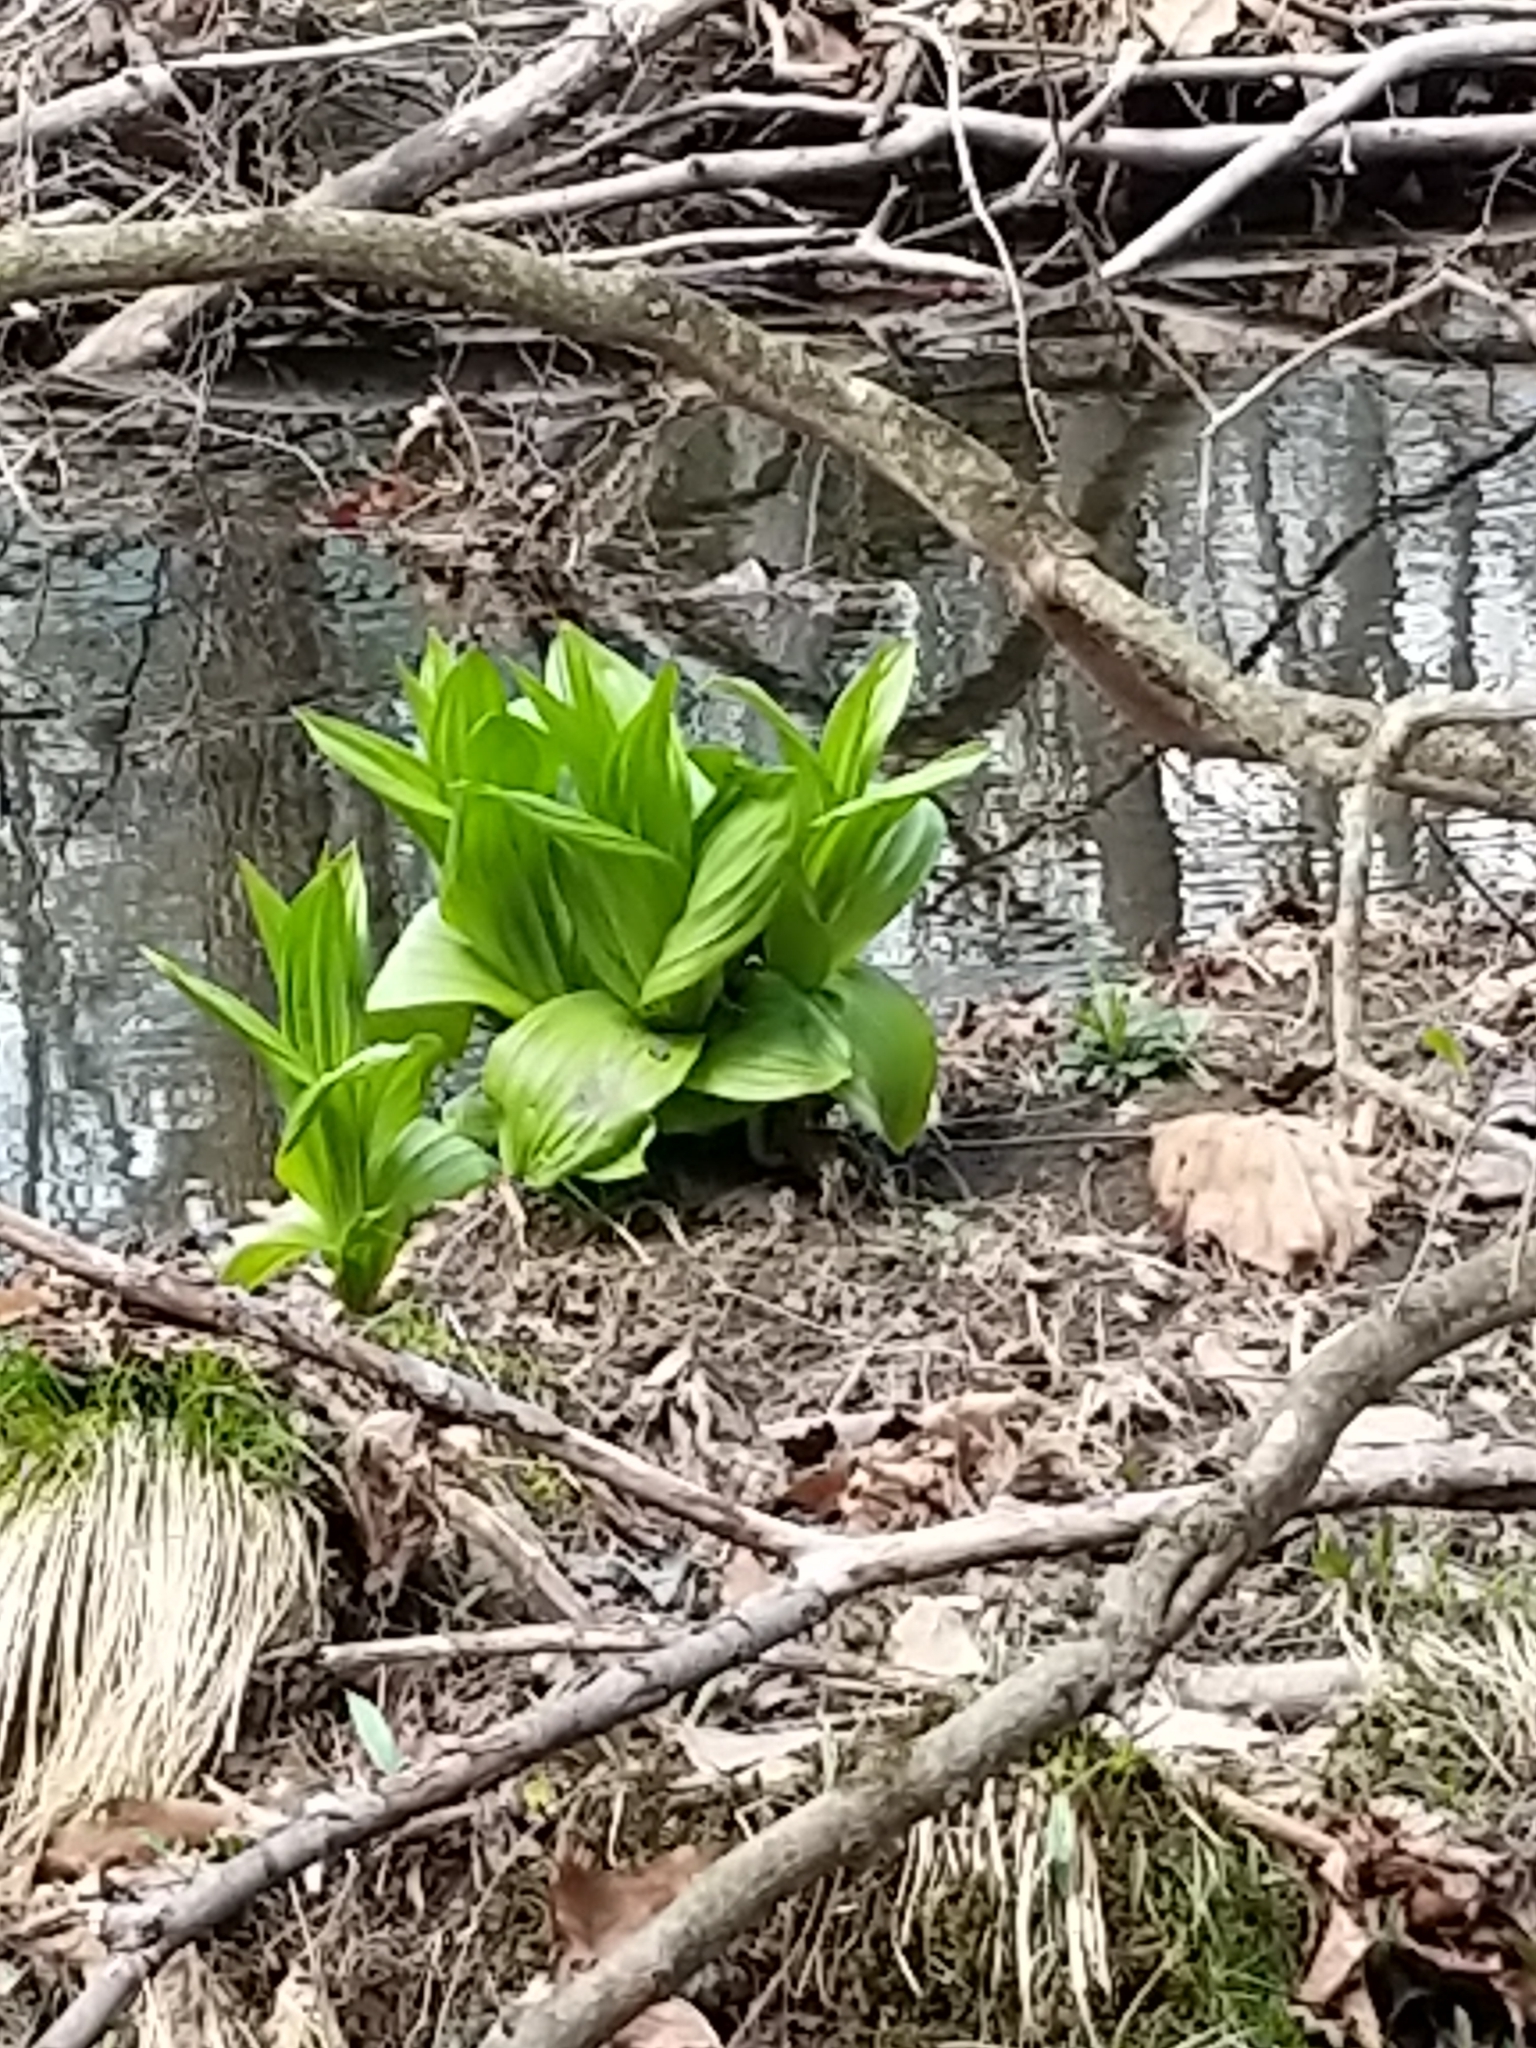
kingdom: Plantae
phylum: Tracheophyta
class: Liliopsida
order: Liliales
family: Melanthiaceae
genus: Veratrum
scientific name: Veratrum viride
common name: American false hellebore
